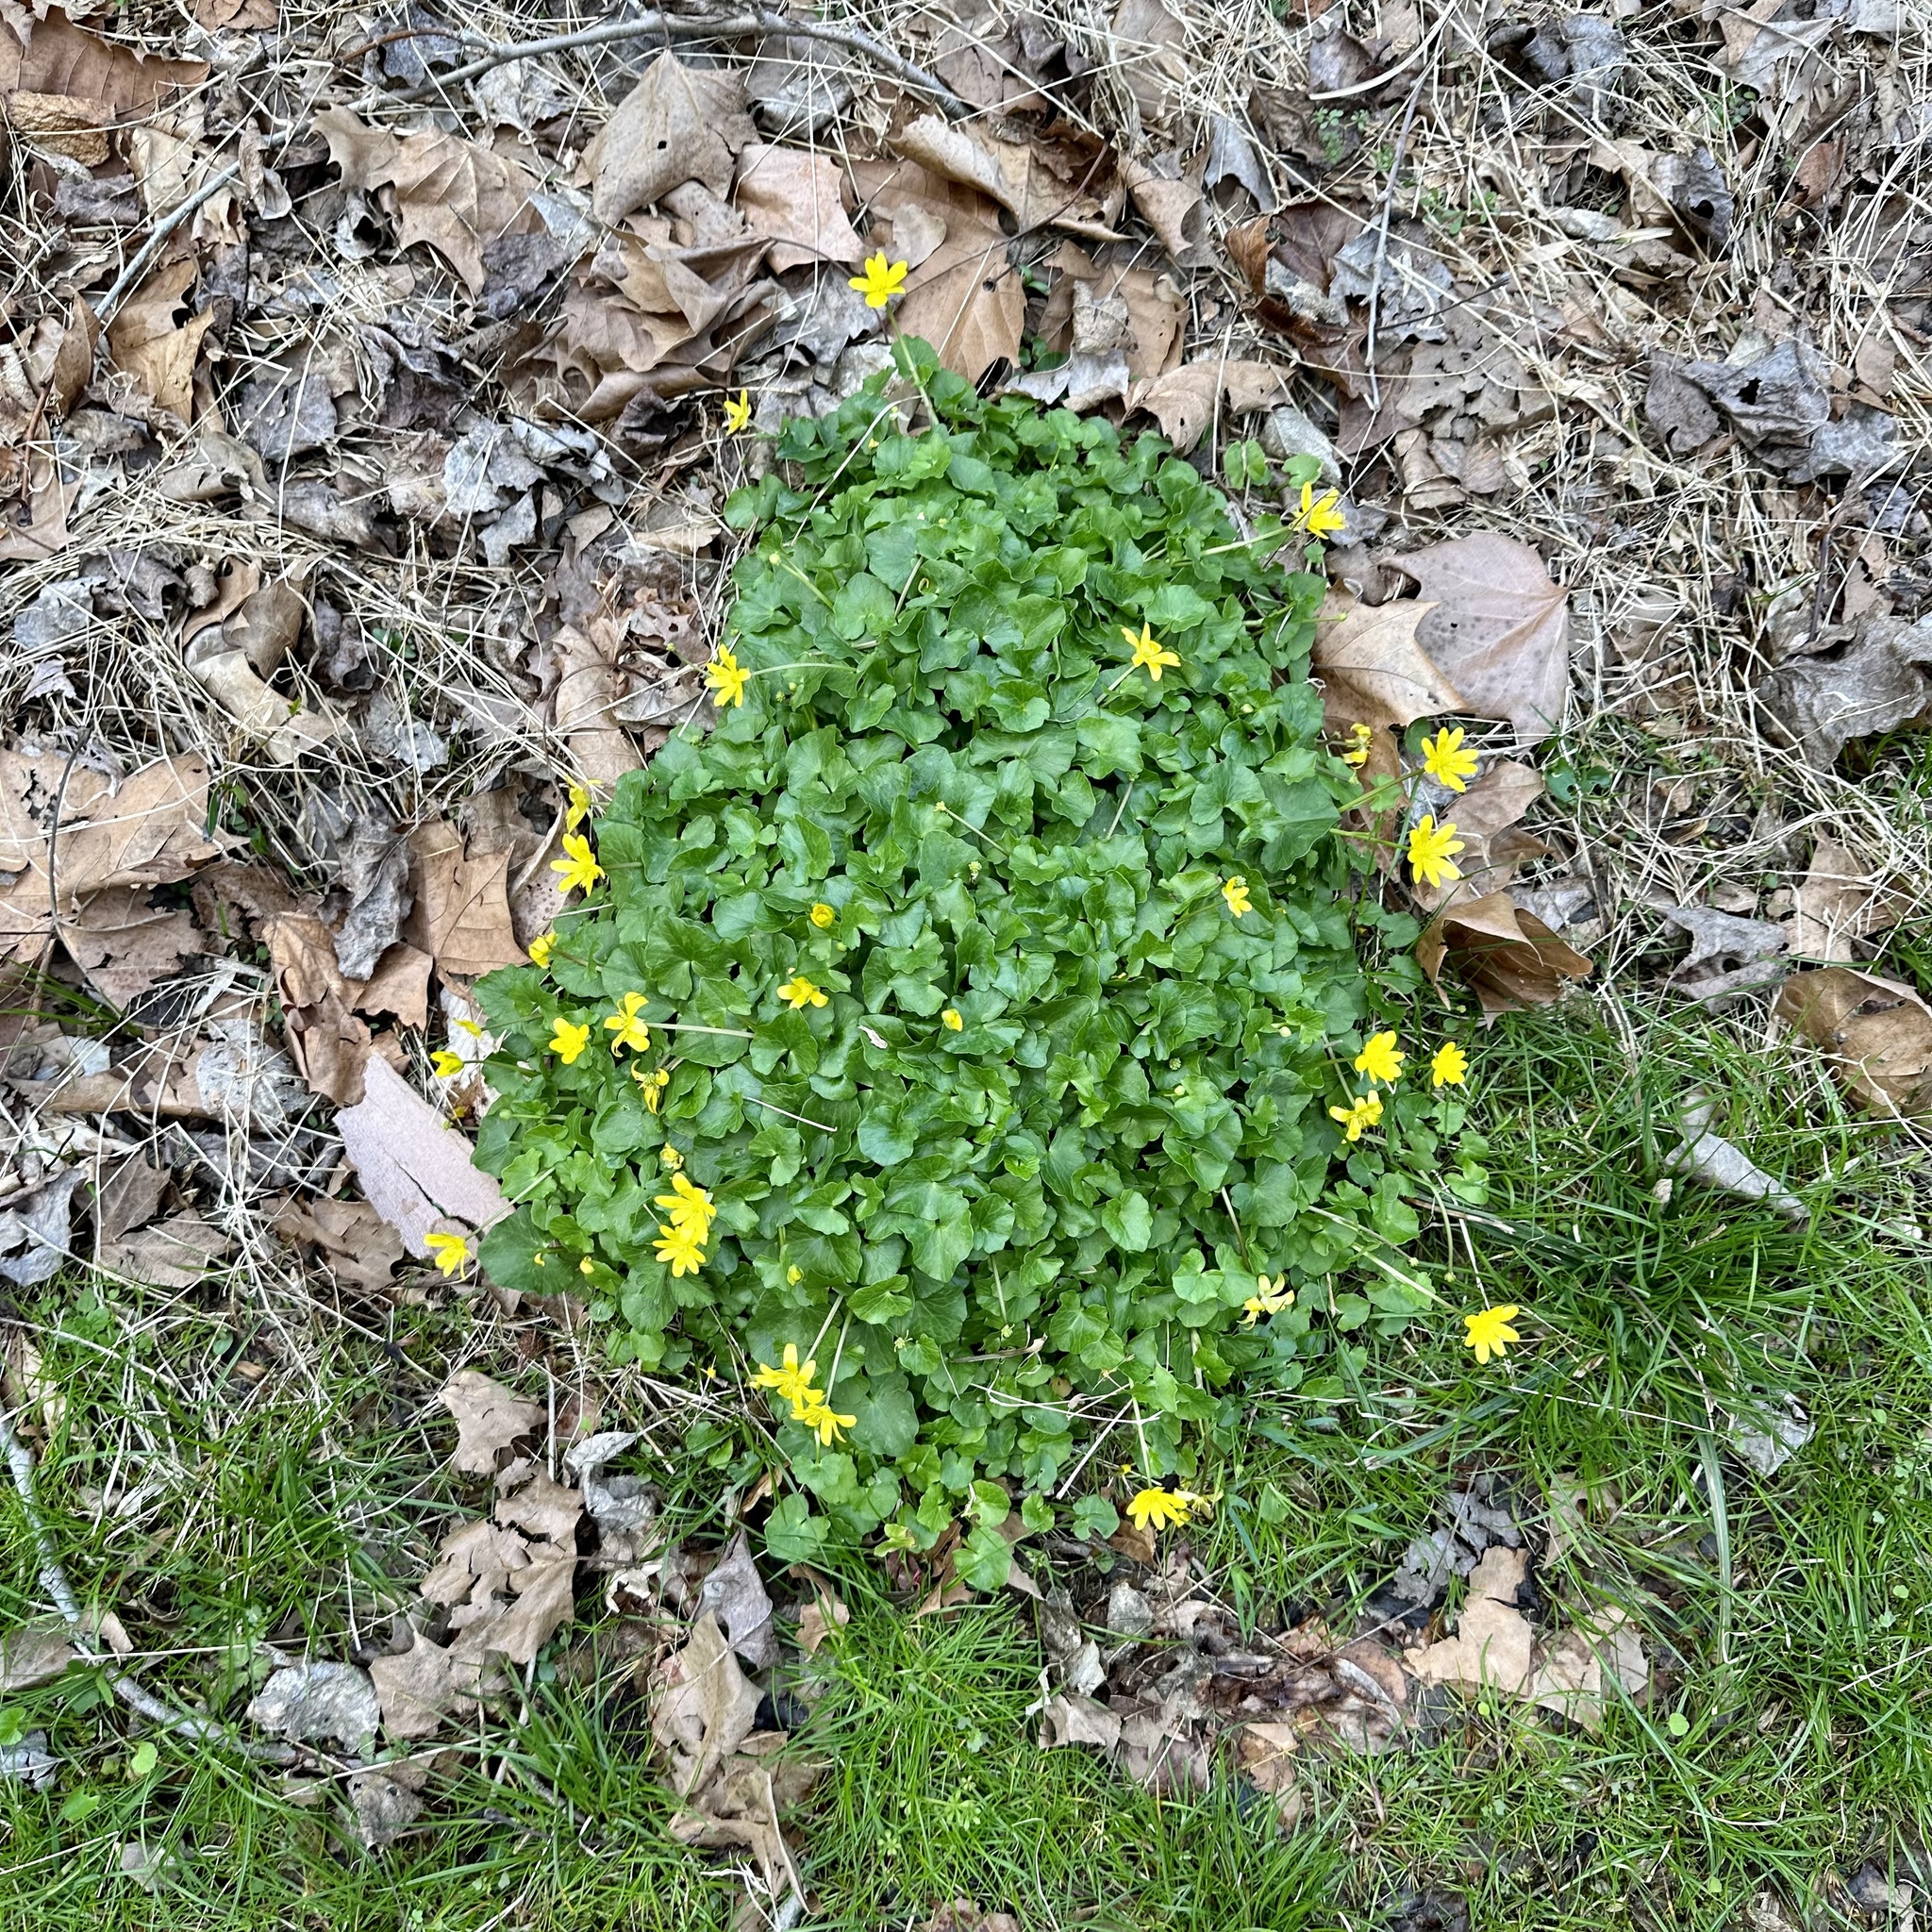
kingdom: Plantae
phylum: Tracheophyta
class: Magnoliopsida
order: Ranunculales
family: Ranunculaceae
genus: Ficaria
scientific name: Ficaria verna
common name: Lesser celandine
